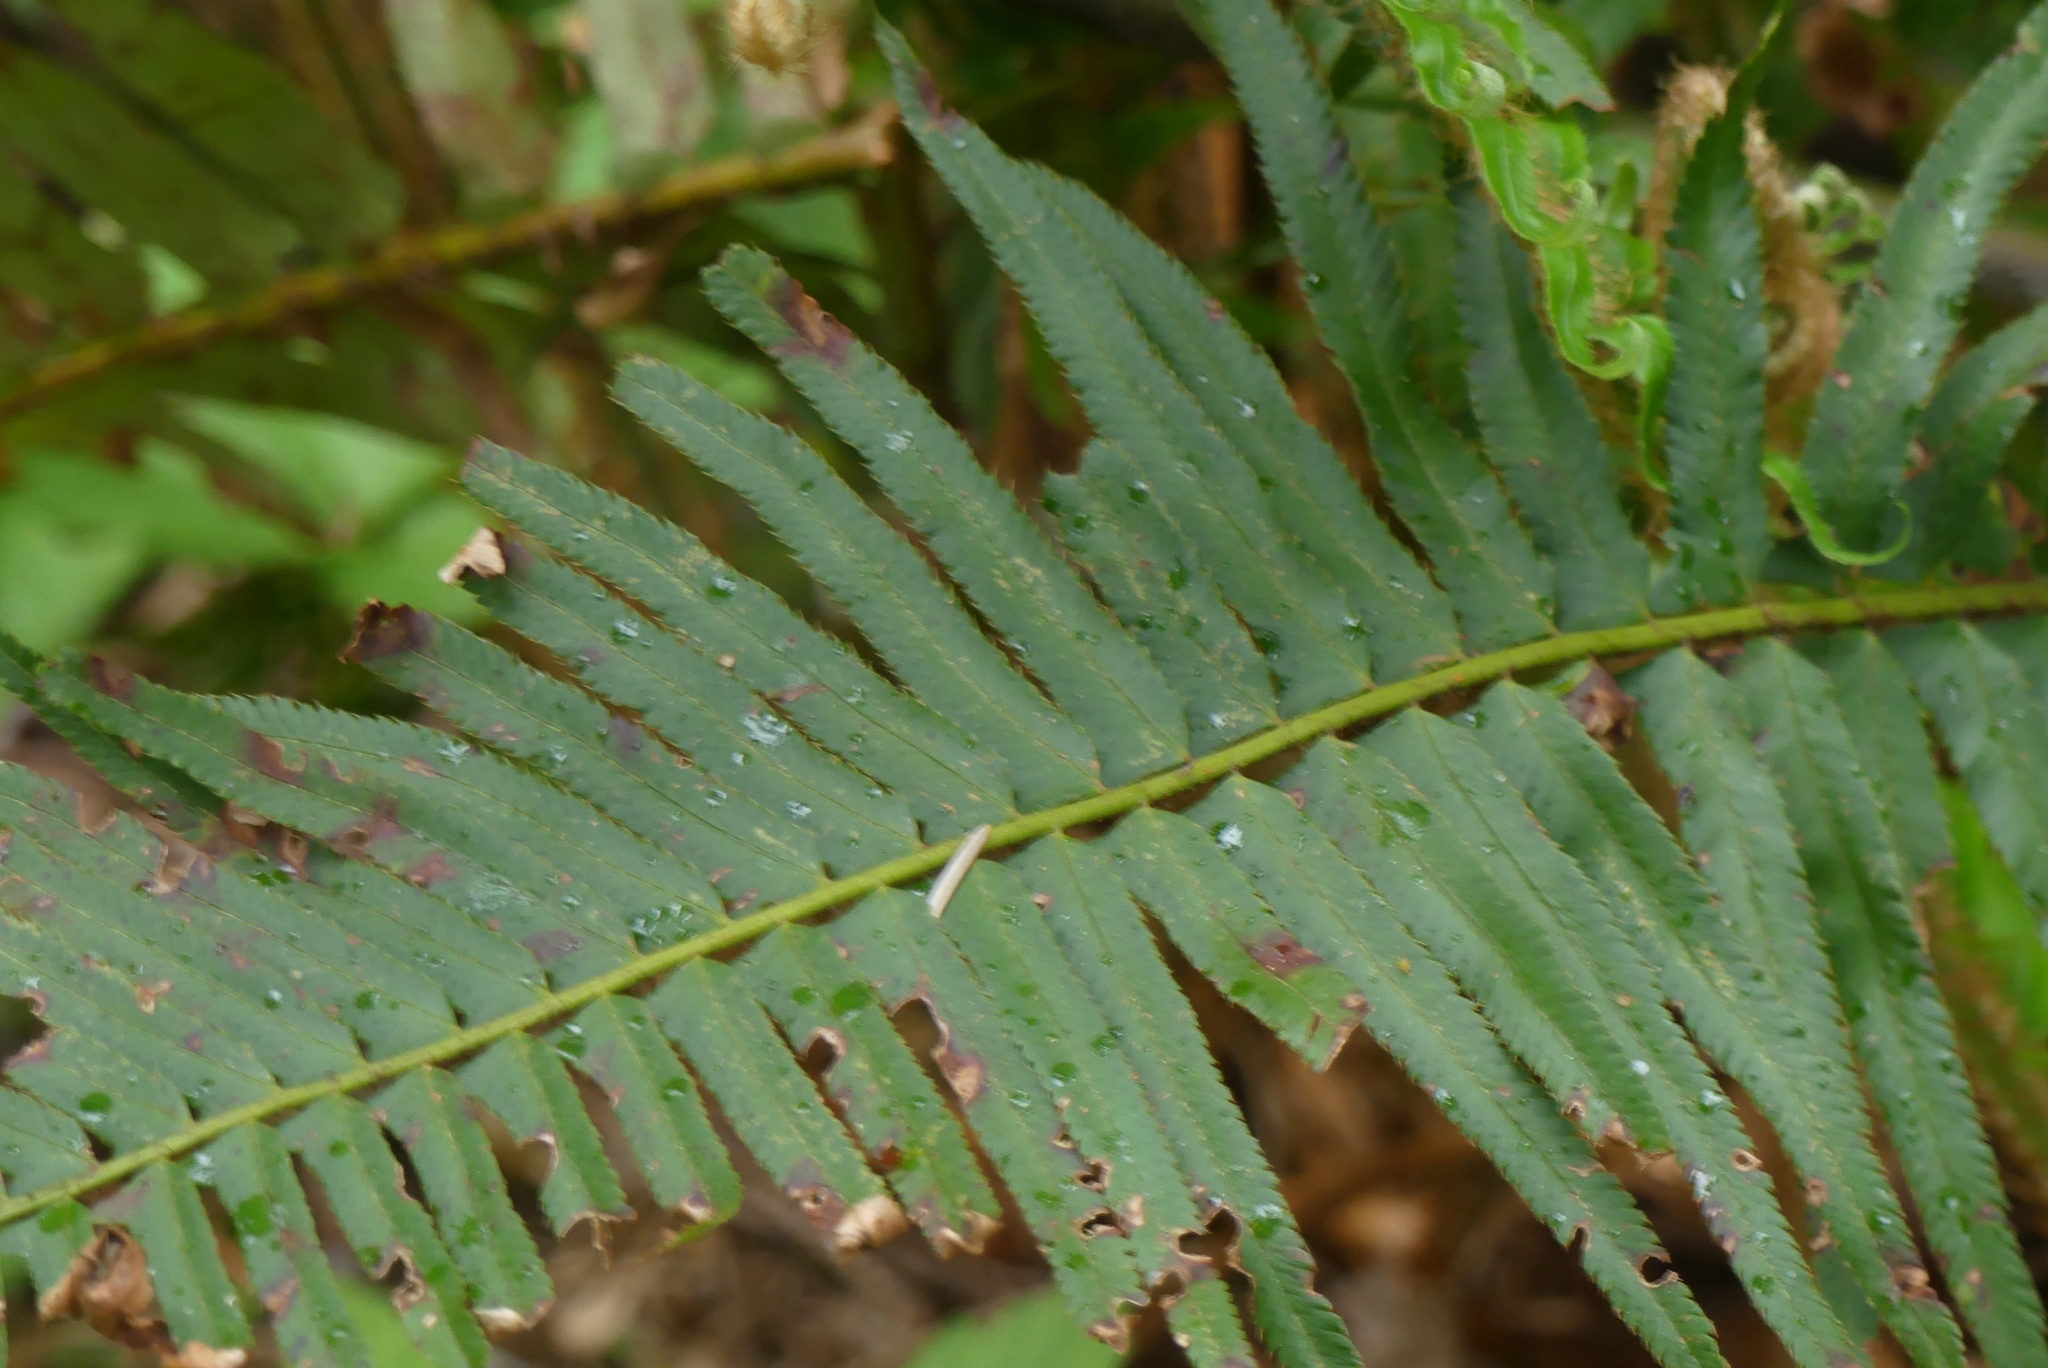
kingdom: Plantae
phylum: Tracheophyta
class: Polypodiopsida
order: Polypodiales
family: Dryopteridaceae
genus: Polystichum
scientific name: Polystichum munitum
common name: Western sword-fern
